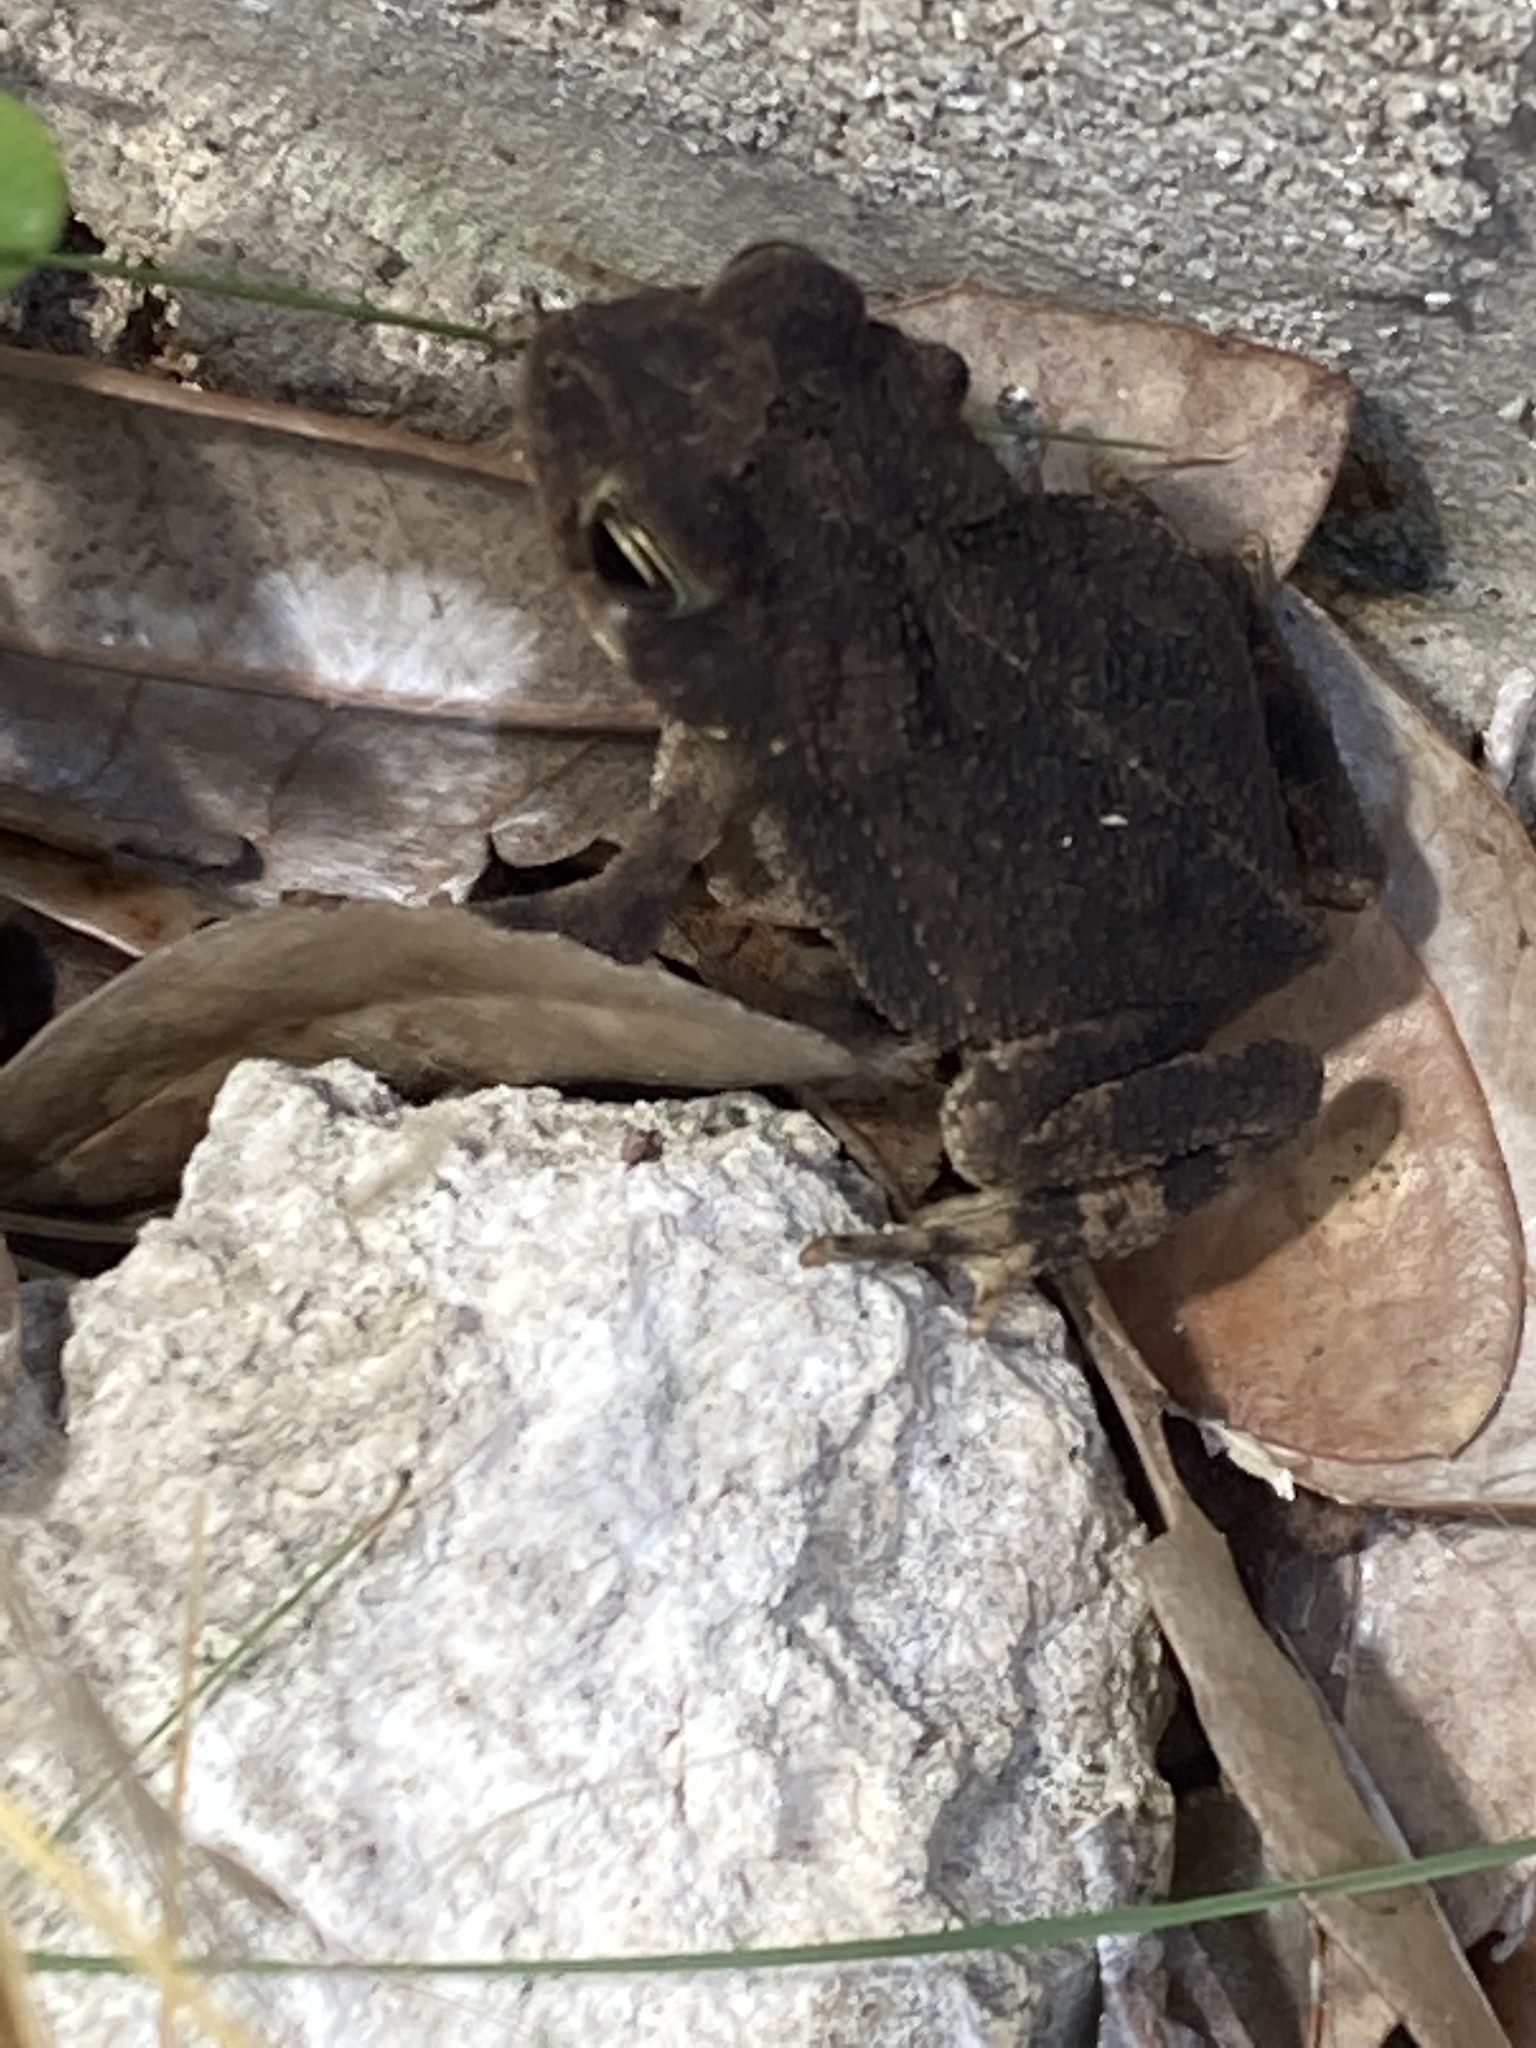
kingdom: Animalia
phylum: Chordata
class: Amphibia
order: Anura
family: Bufonidae
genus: Incilius
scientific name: Incilius nebulifer
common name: Gulf coast toad
